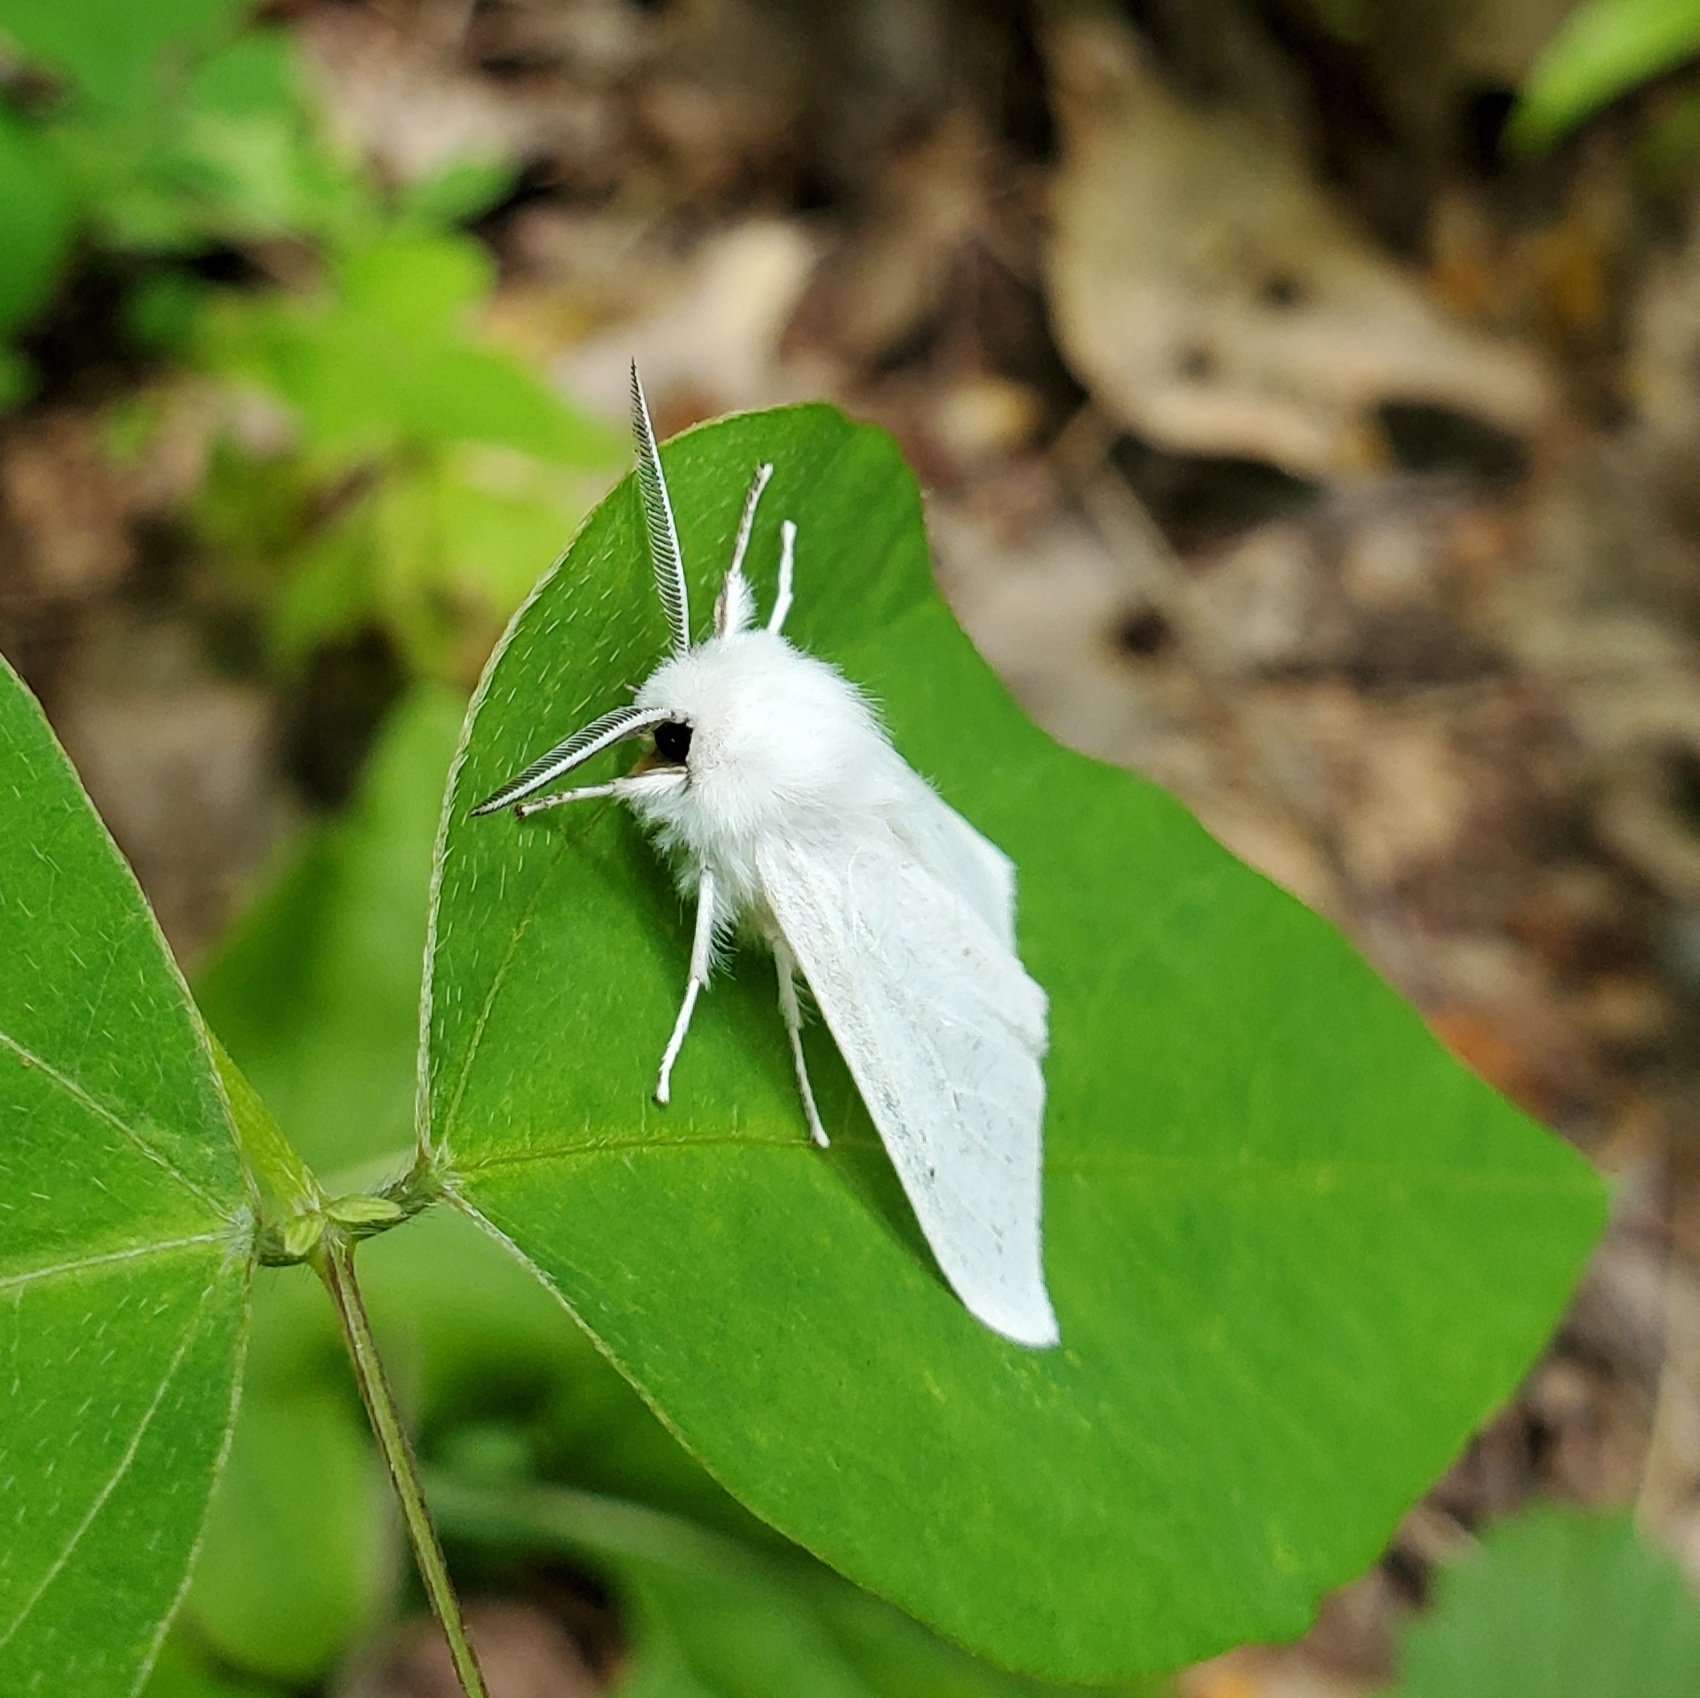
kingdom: Animalia
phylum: Arthropoda
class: Insecta
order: Lepidoptera
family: Erebidae
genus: Spilosoma
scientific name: Spilosoma congrua
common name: Agreeable tiger moth
